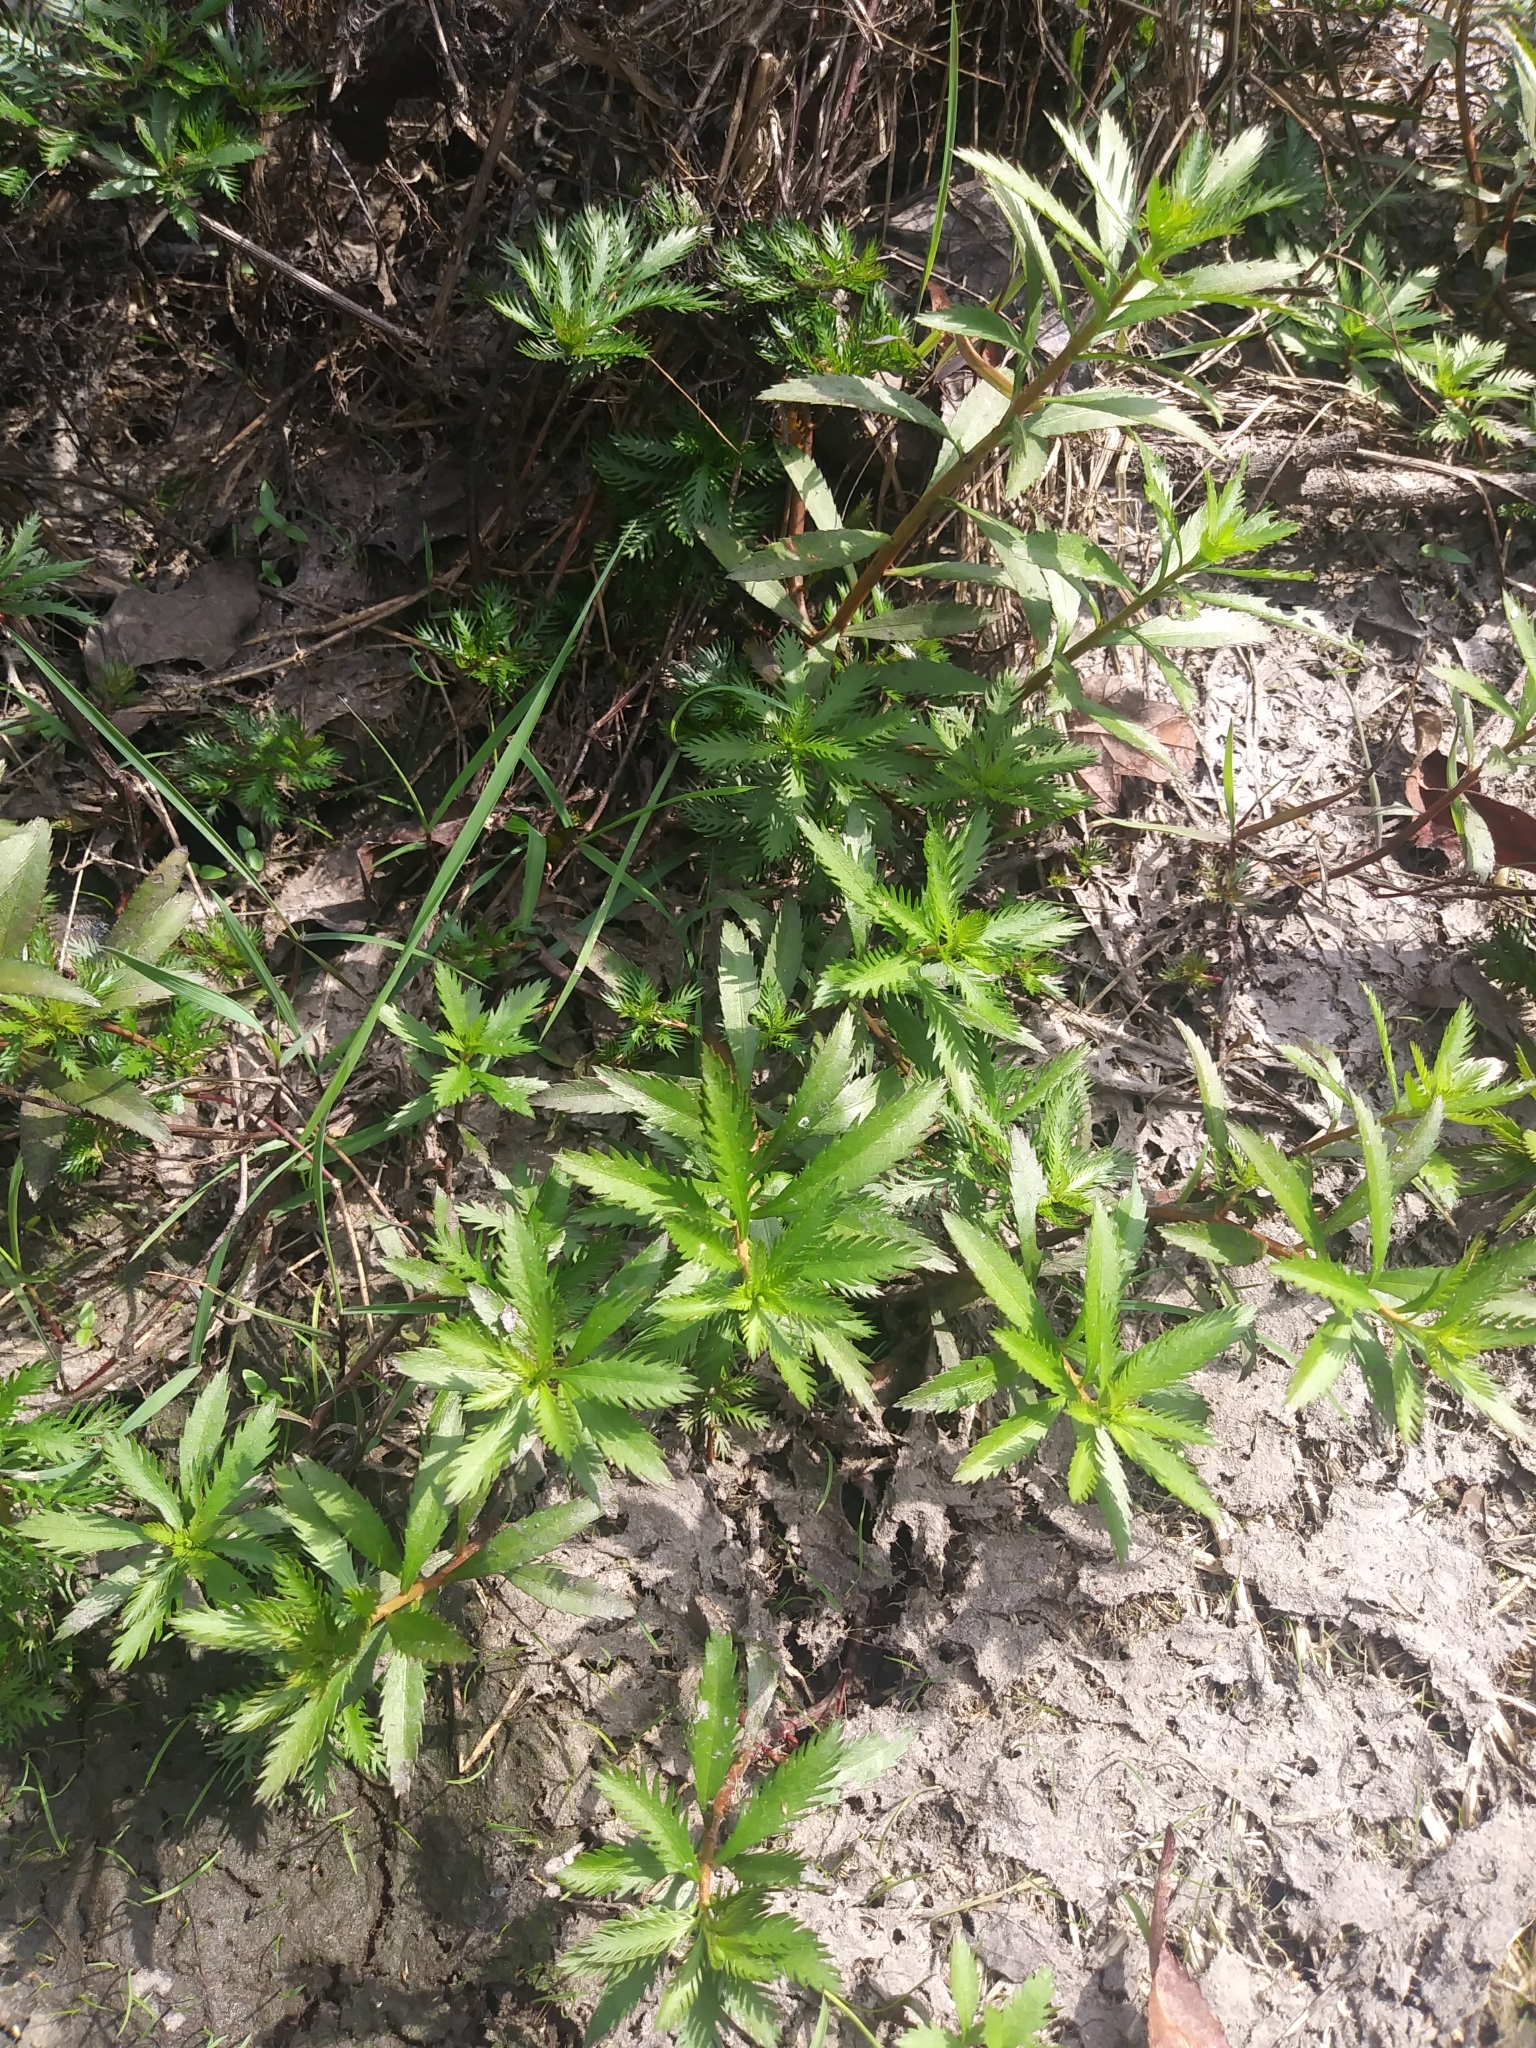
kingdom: Plantae
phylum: Tracheophyta
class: Magnoliopsida
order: Saxifragales
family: Haloragaceae
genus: Proserpinaca
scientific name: Proserpinaca palustris
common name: Marsh mermaidweed
